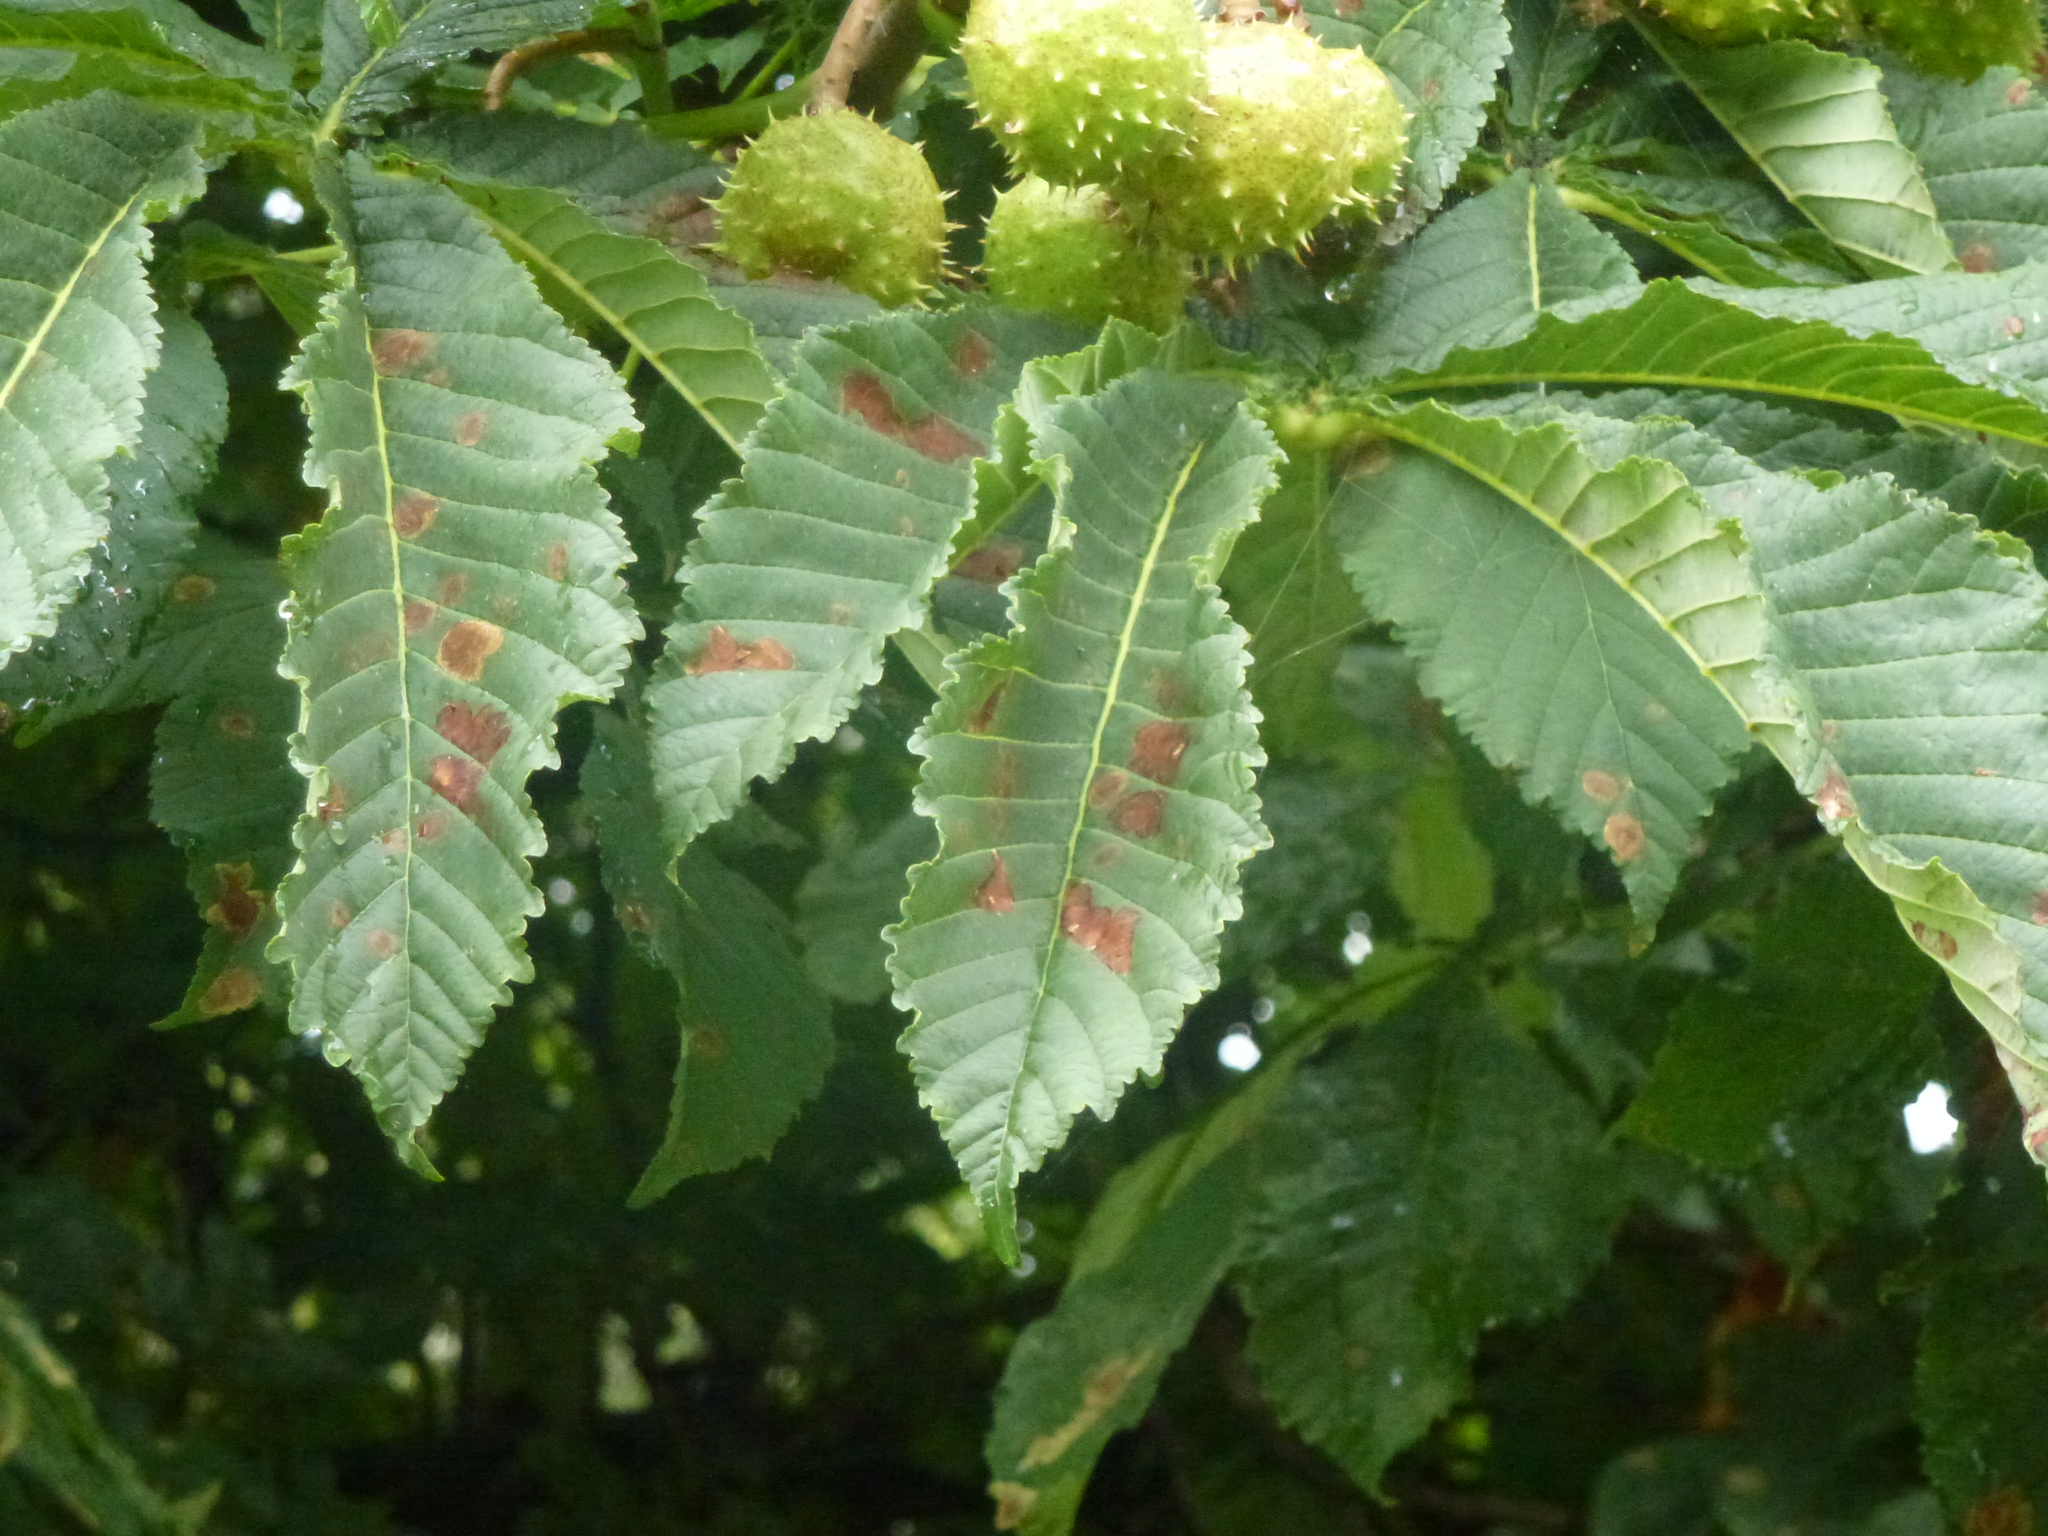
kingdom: Animalia
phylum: Arthropoda
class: Insecta
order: Lepidoptera
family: Gracillariidae
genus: Cameraria
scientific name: Cameraria ohridella
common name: Horse-chestnut leaf-miner
